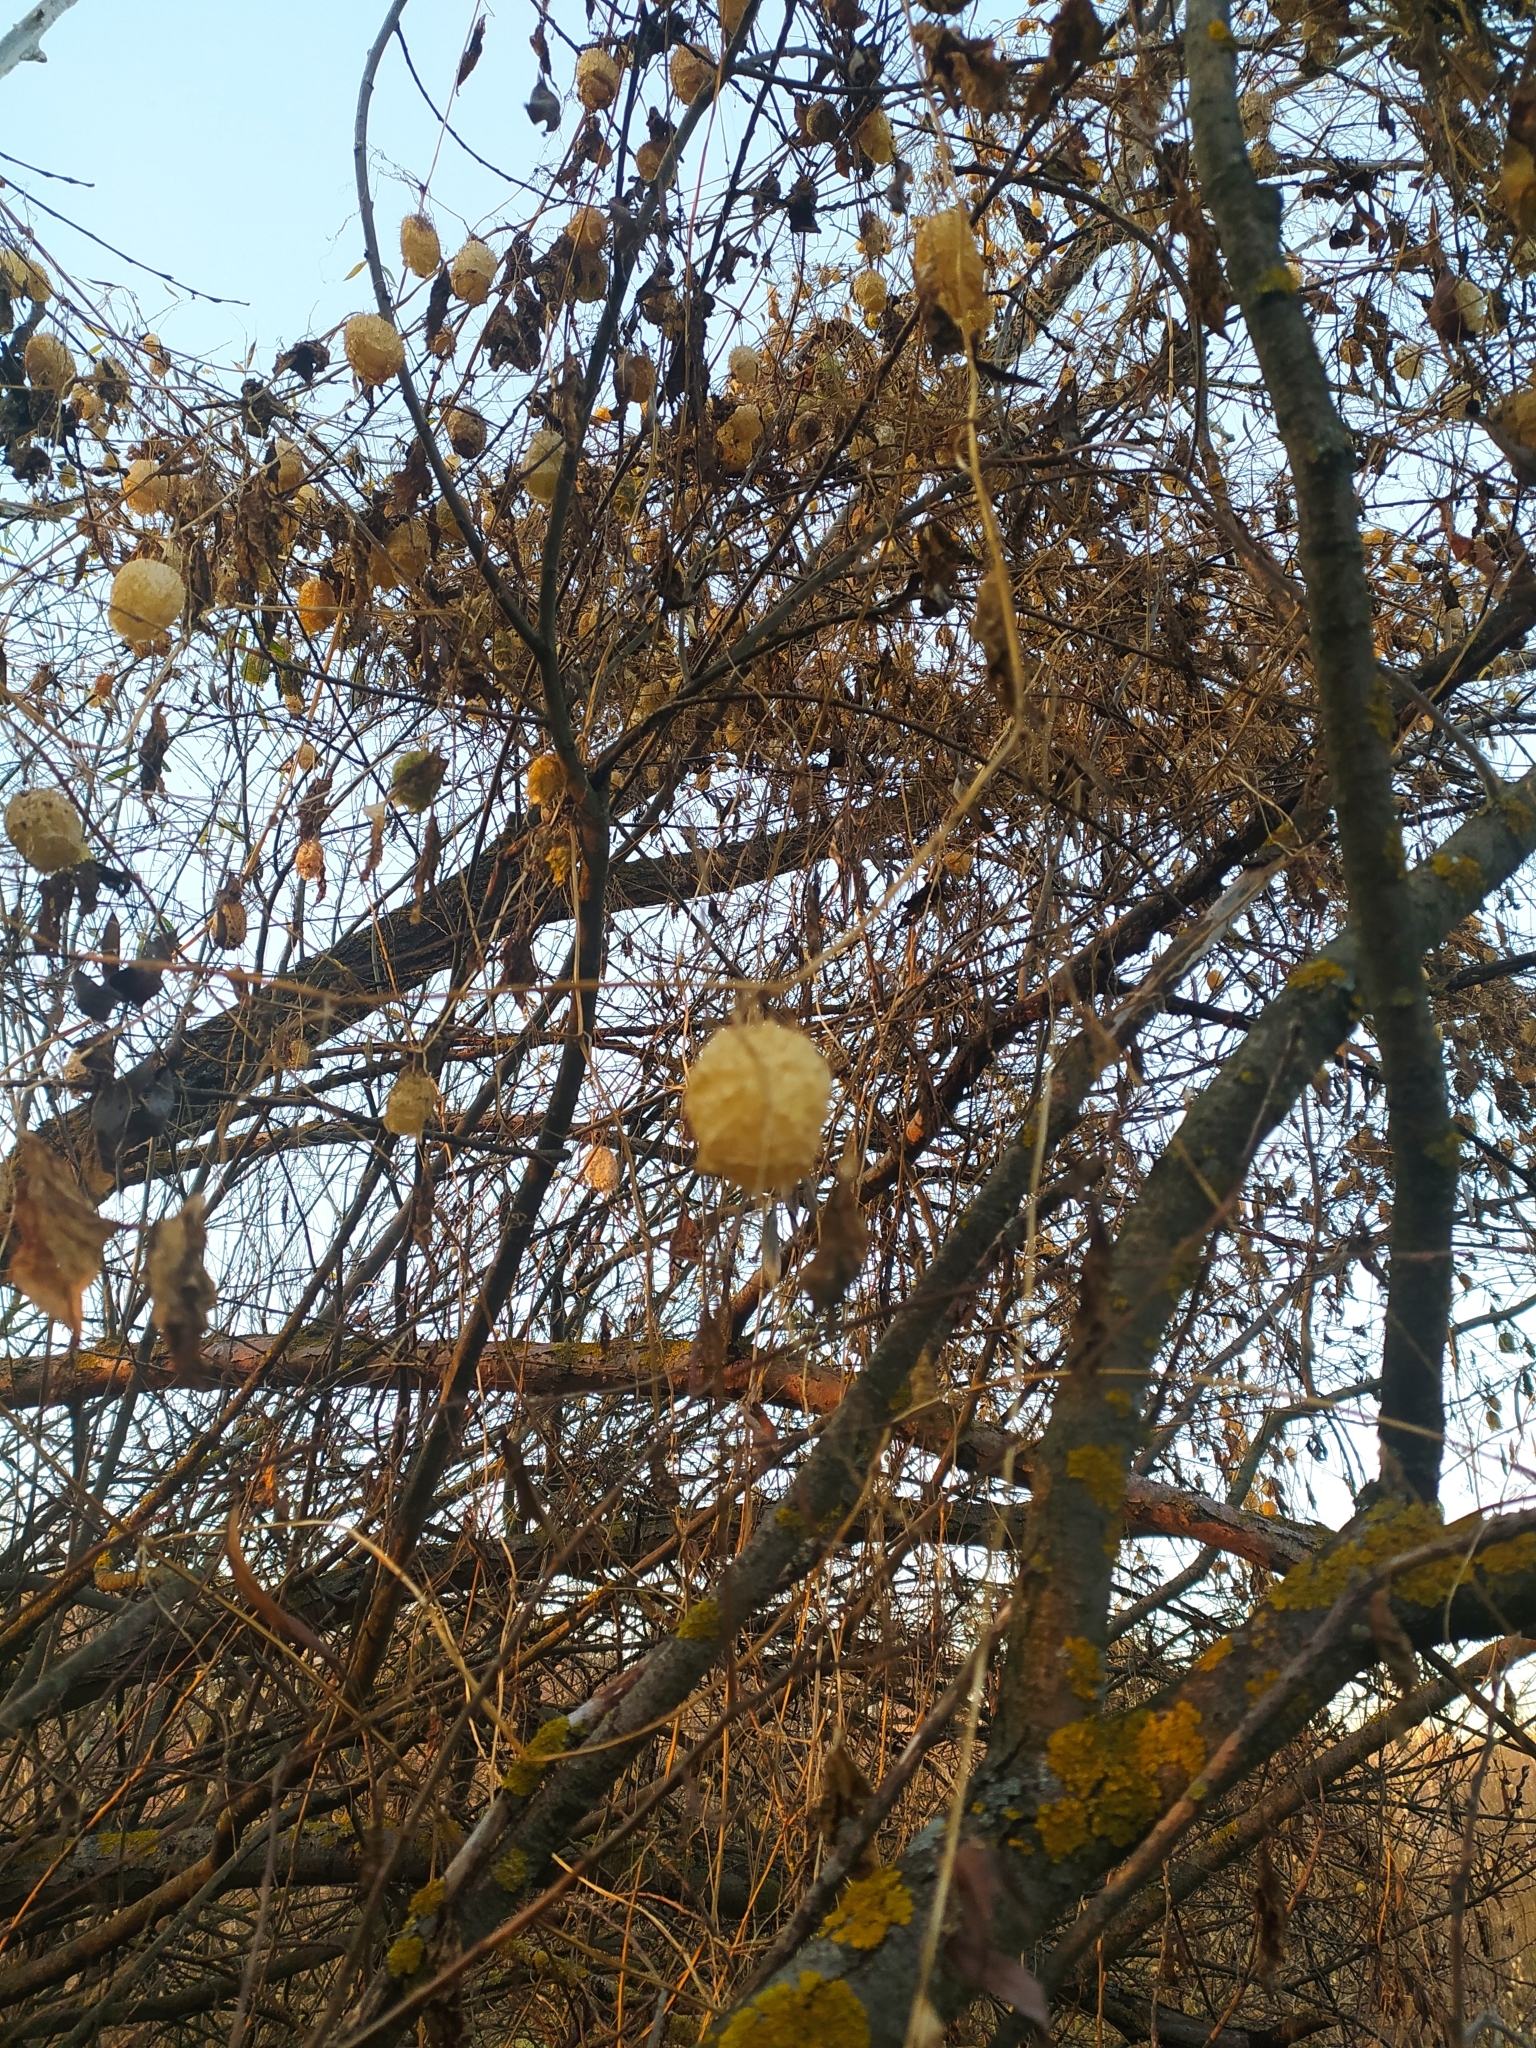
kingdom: Plantae
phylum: Tracheophyta
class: Magnoliopsida
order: Cucurbitales
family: Cucurbitaceae
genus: Echinocystis
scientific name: Echinocystis lobata
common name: Wild cucumber
